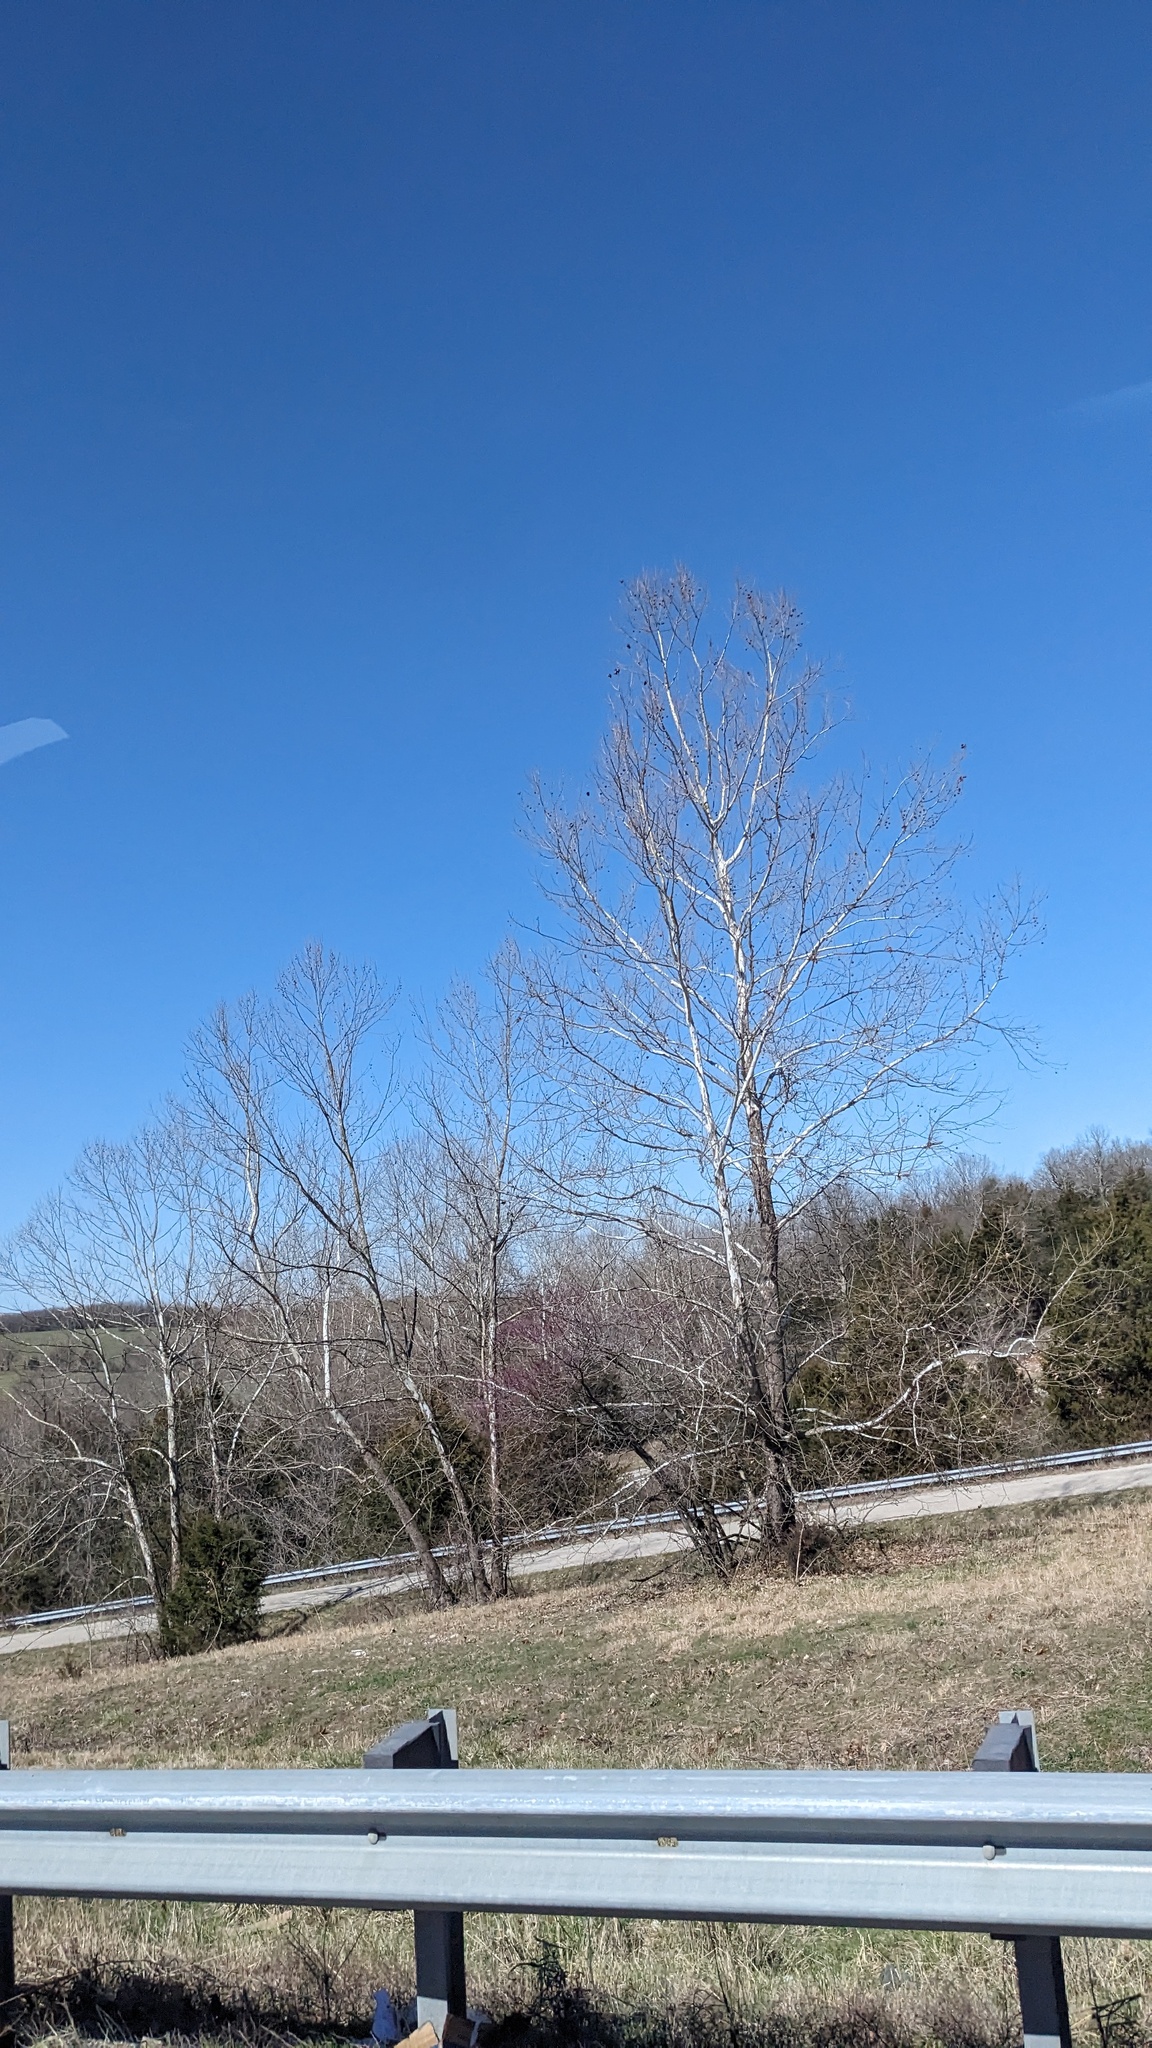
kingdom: Plantae
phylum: Tracheophyta
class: Magnoliopsida
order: Proteales
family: Platanaceae
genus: Platanus
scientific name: Platanus occidentalis
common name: American sycamore
